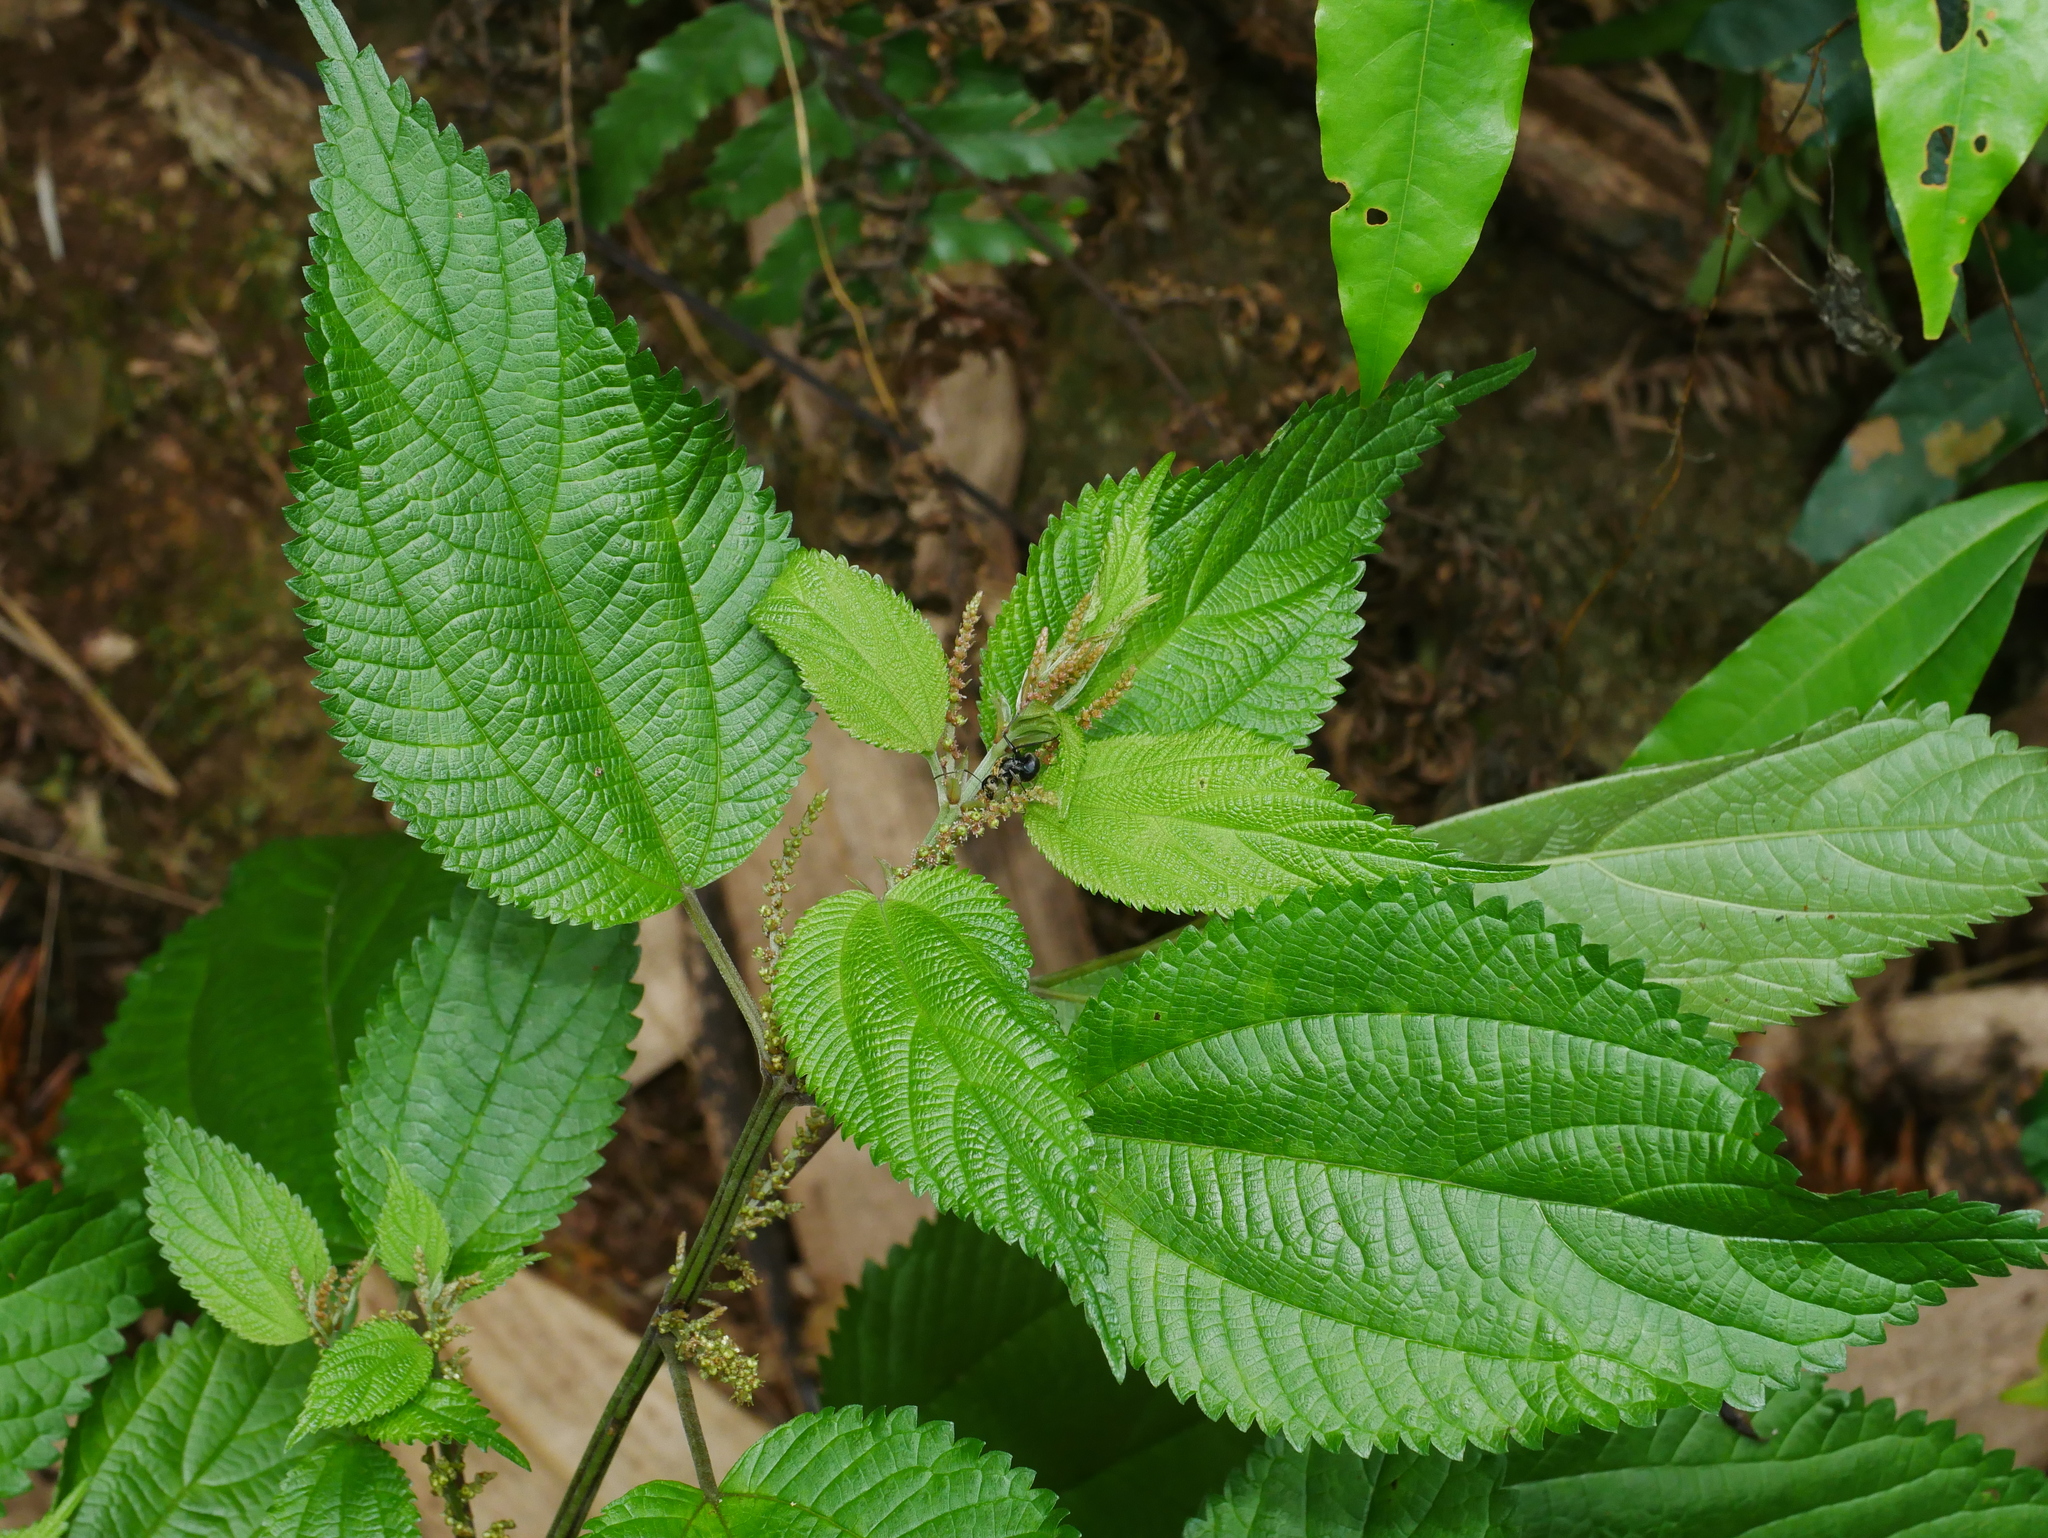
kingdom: Plantae
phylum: Tracheophyta
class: Magnoliopsida
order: Rosales
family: Urticaceae
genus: Boehmeria
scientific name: Boehmeria sieboldiana
